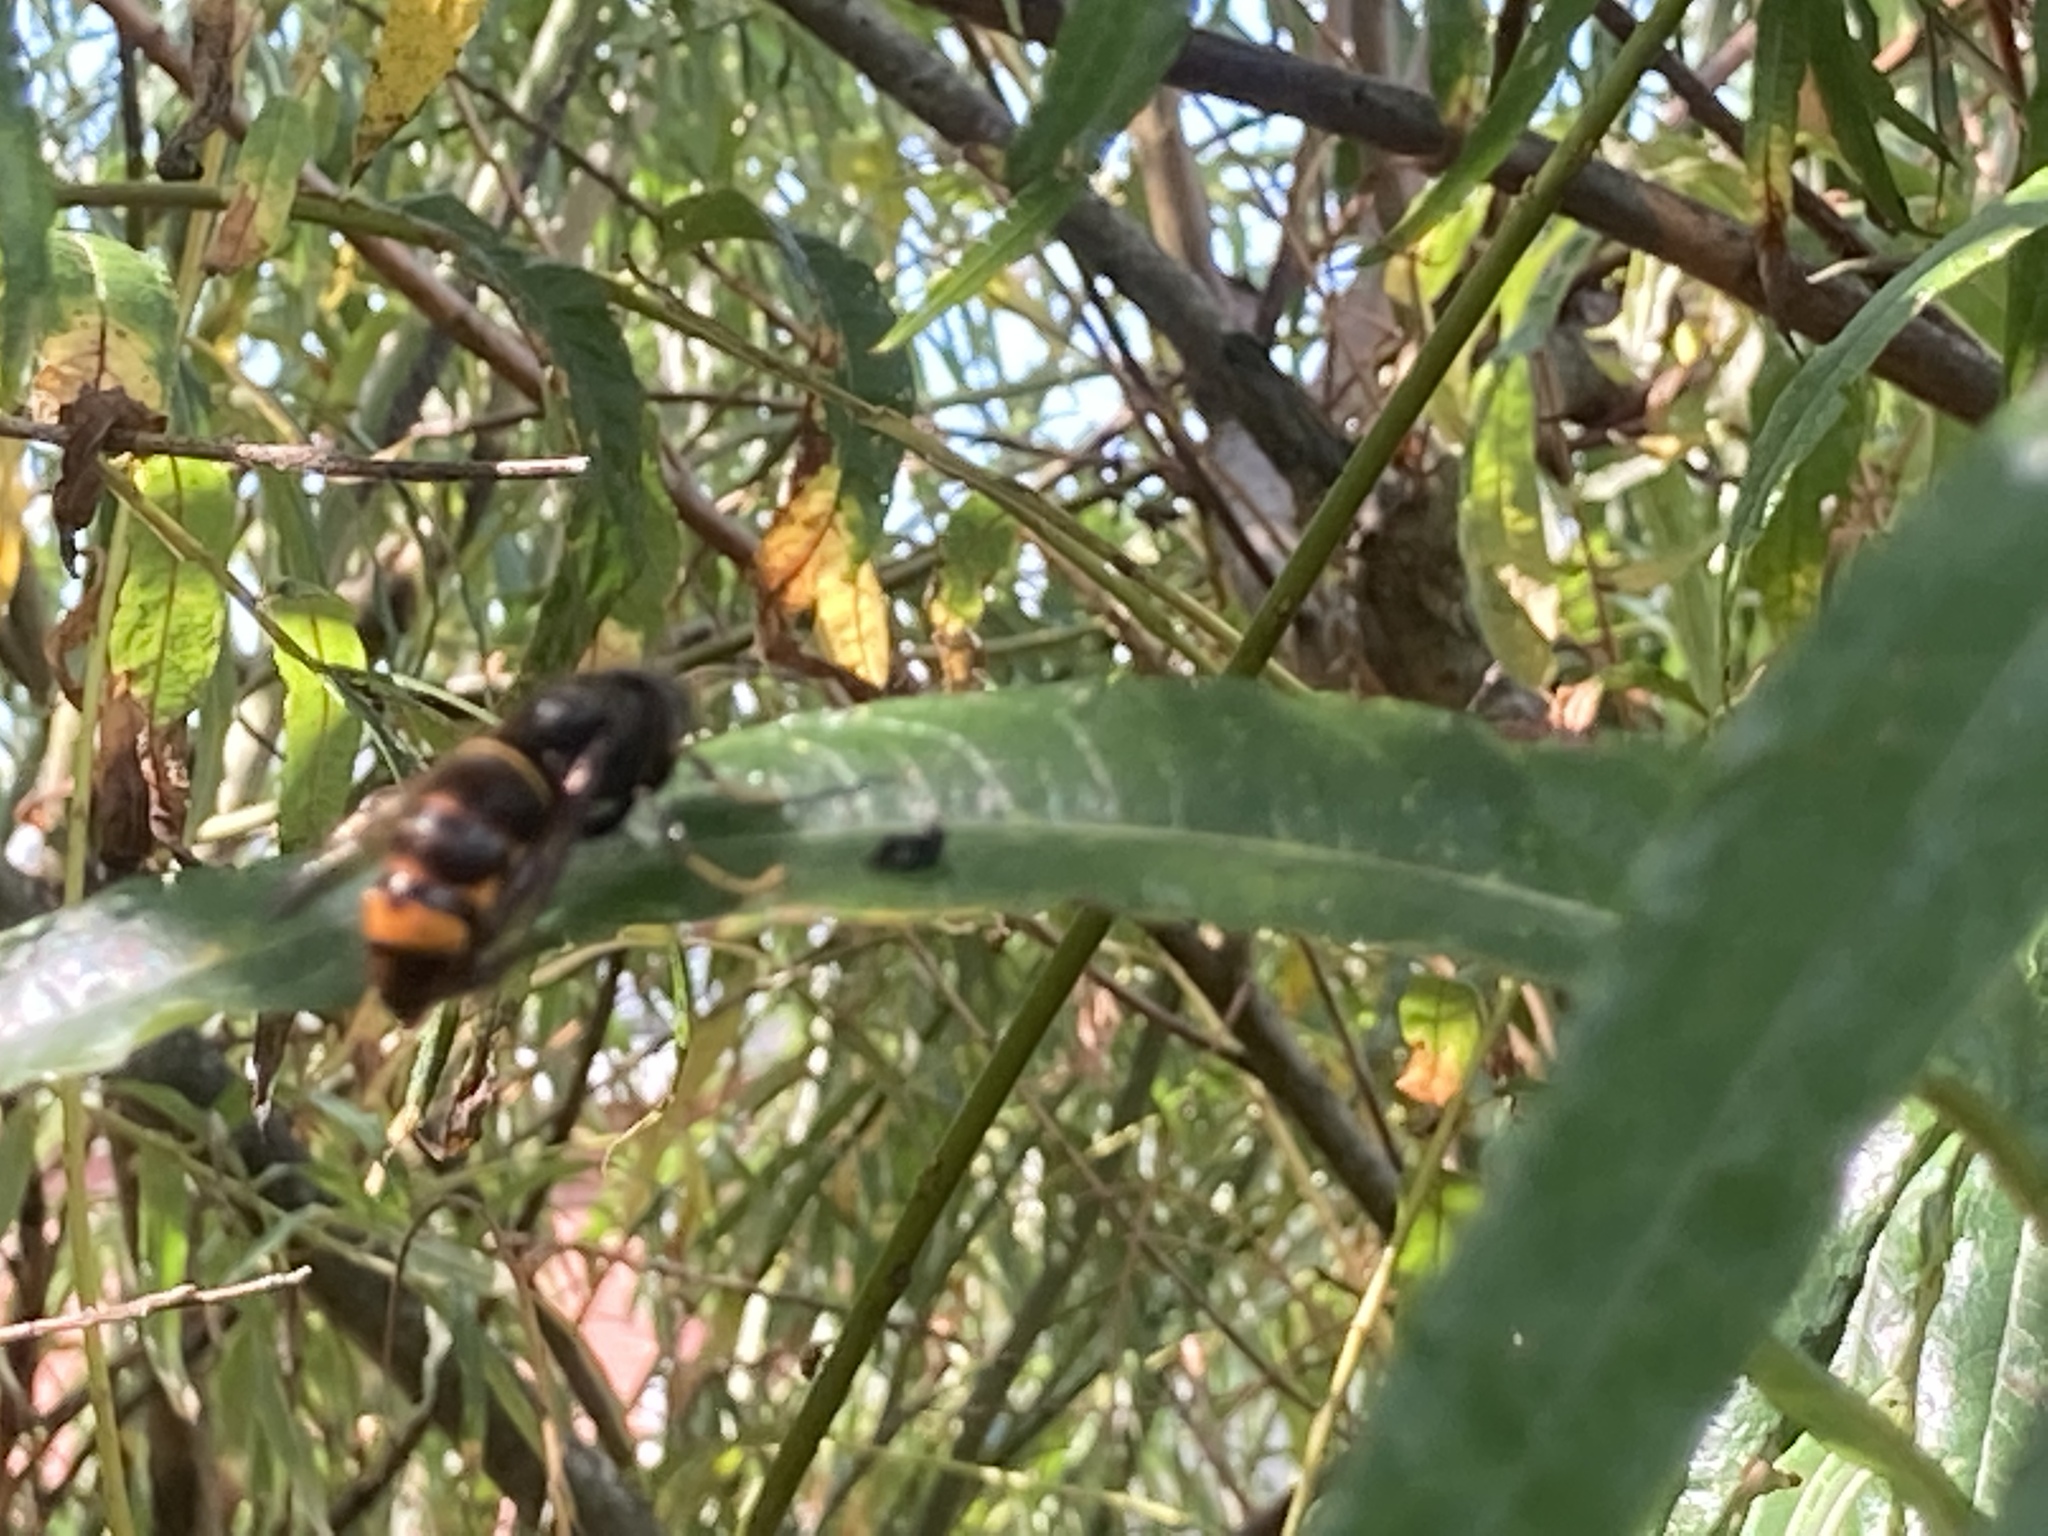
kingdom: Animalia
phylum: Arthropoda
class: Insecta
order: Hymenoptera
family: Vespidae
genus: Vespa
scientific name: Vespa velutina
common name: Asian hornet
